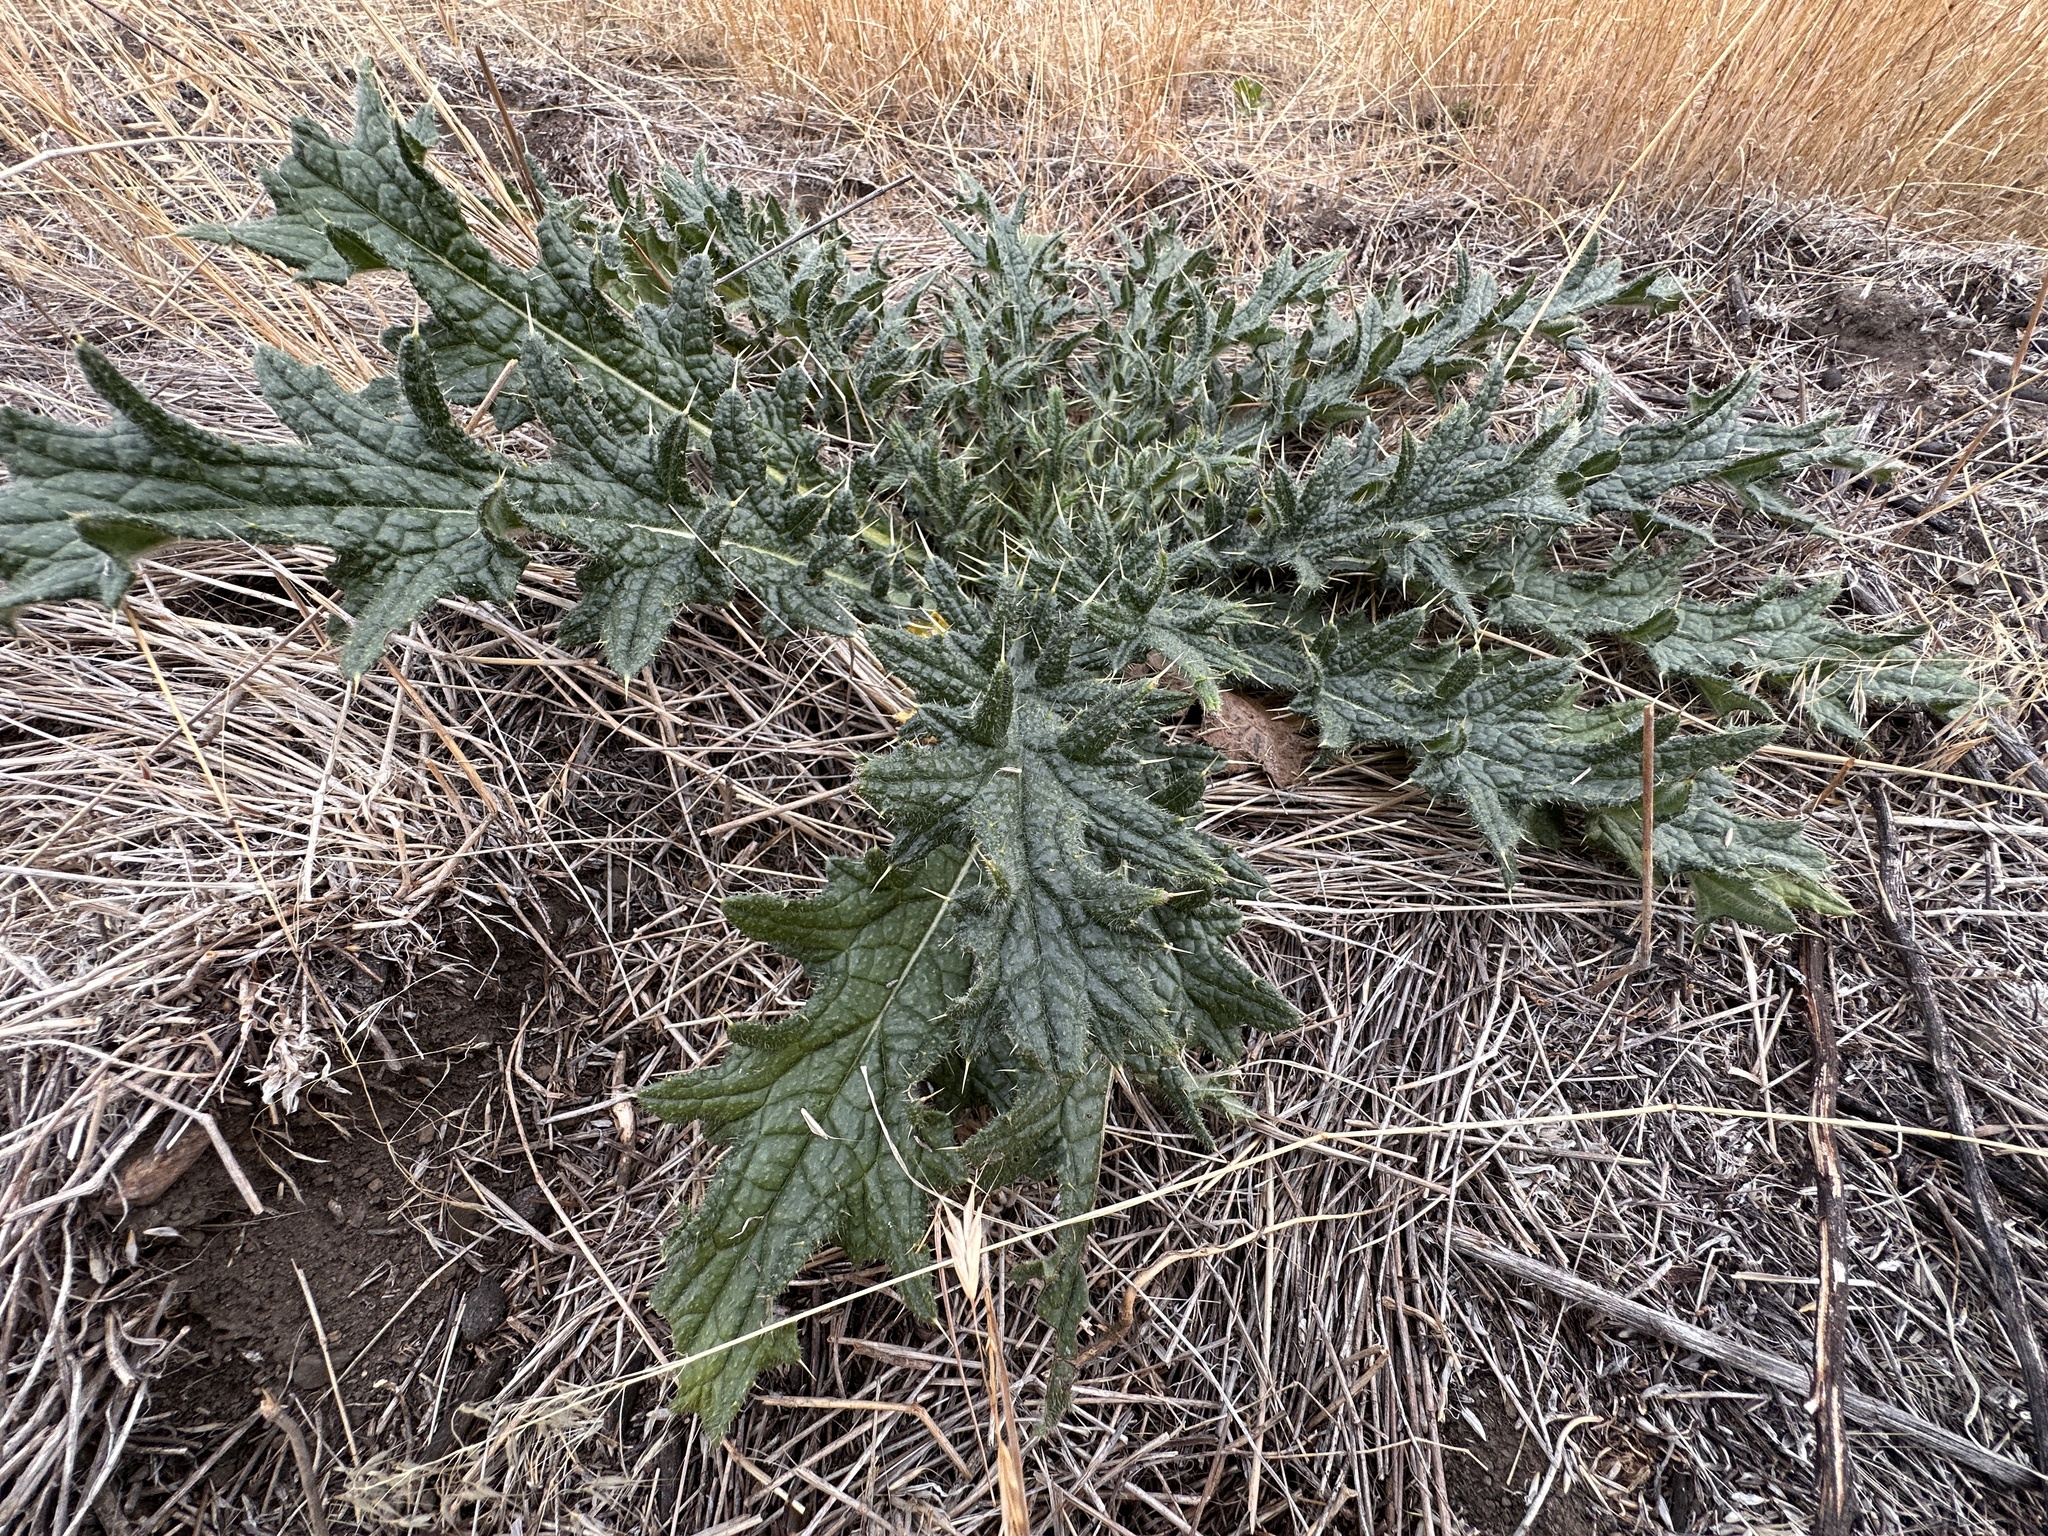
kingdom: Plantae
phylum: Tracheophyta
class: Magnoliopsida
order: Asterales
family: Asteraceae
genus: Cirsium
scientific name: Cirsium vulgare
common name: Bull thistle
